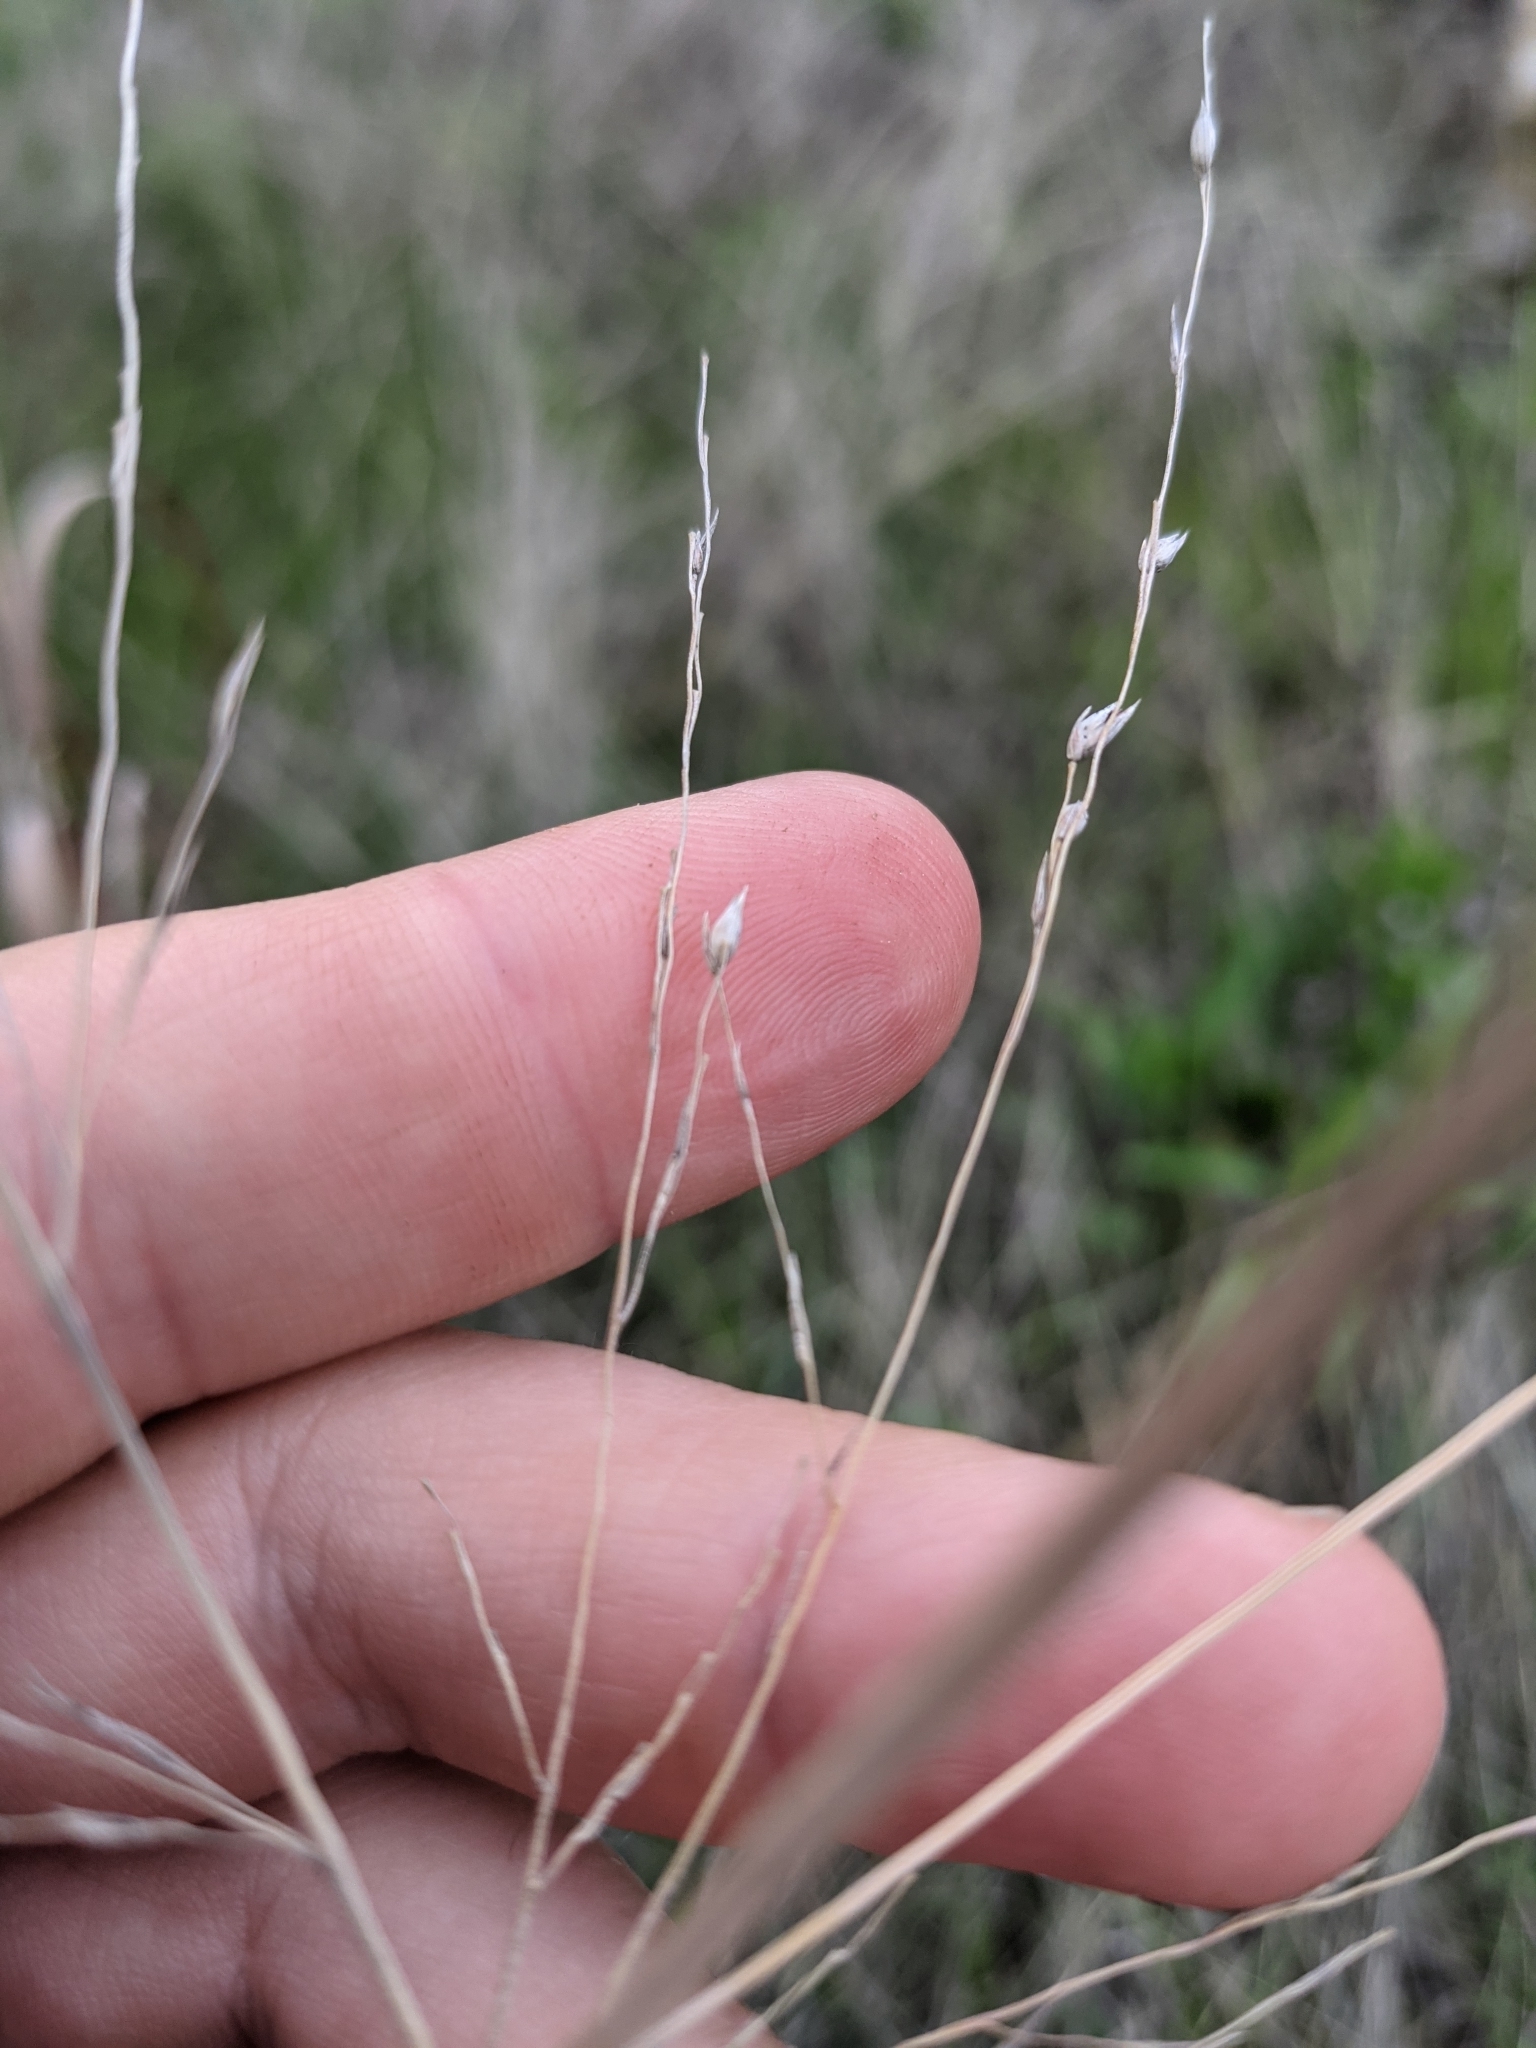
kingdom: Plantae
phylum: Tracheophyta
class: Liliopsida
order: Poales
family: Poaceae
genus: Panicum
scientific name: Panicum virgatum
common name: Switchgrass
